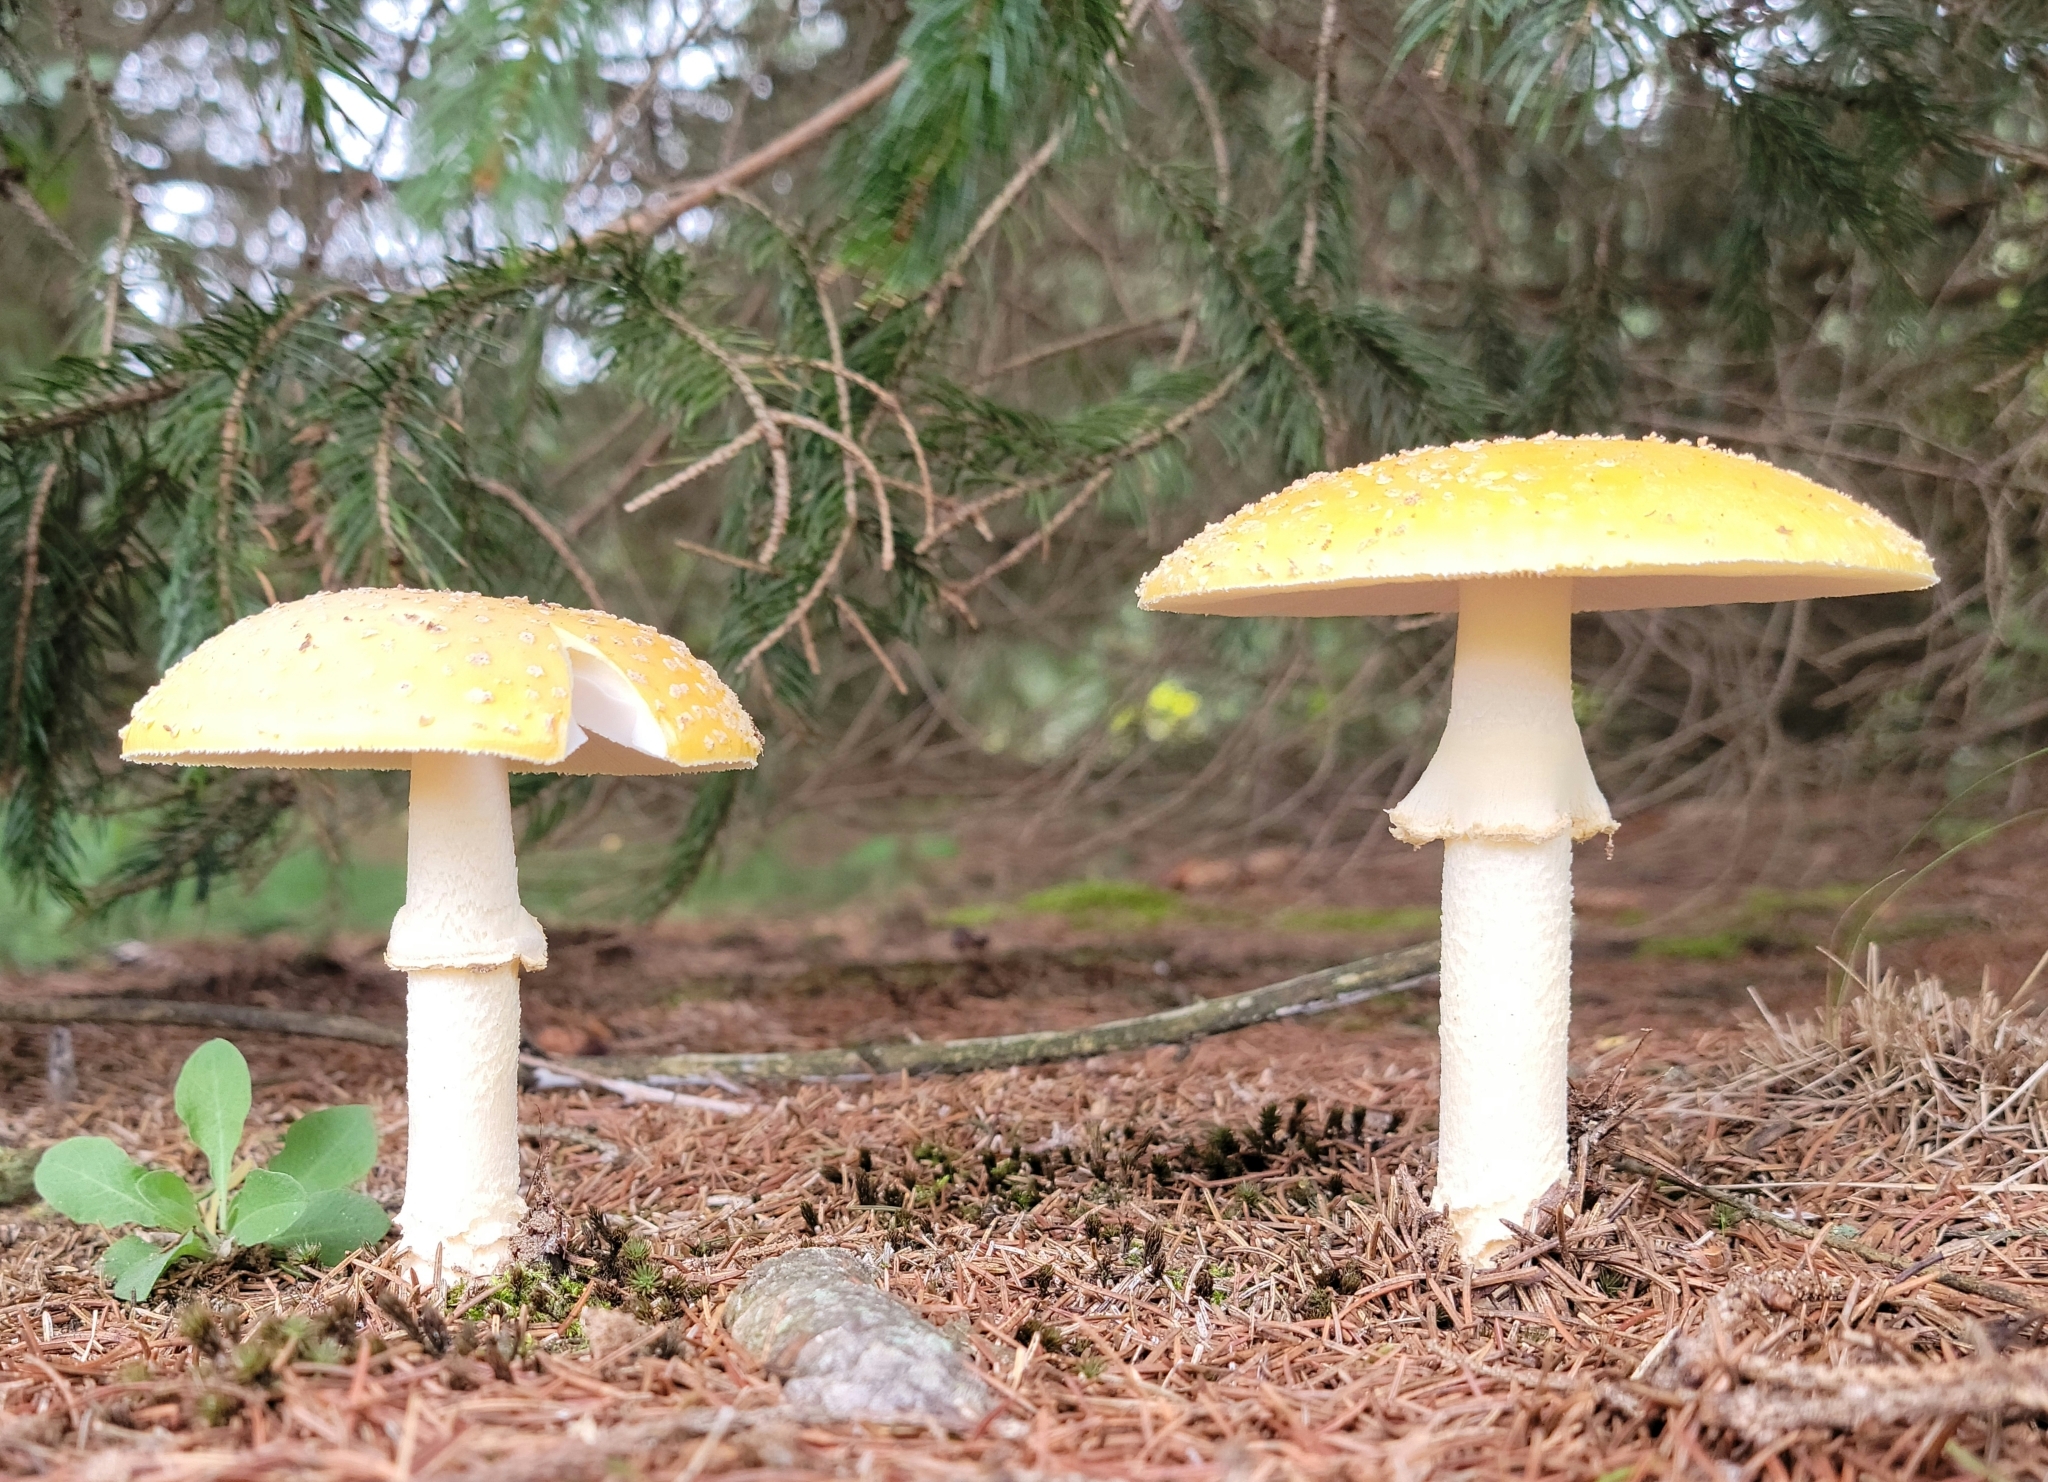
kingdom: Fungi
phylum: Basidiomycota
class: Agaricomycetes
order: Agaricales
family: Amanitaceae
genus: Amanita
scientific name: Amanita muscaria
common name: Fly agaric
